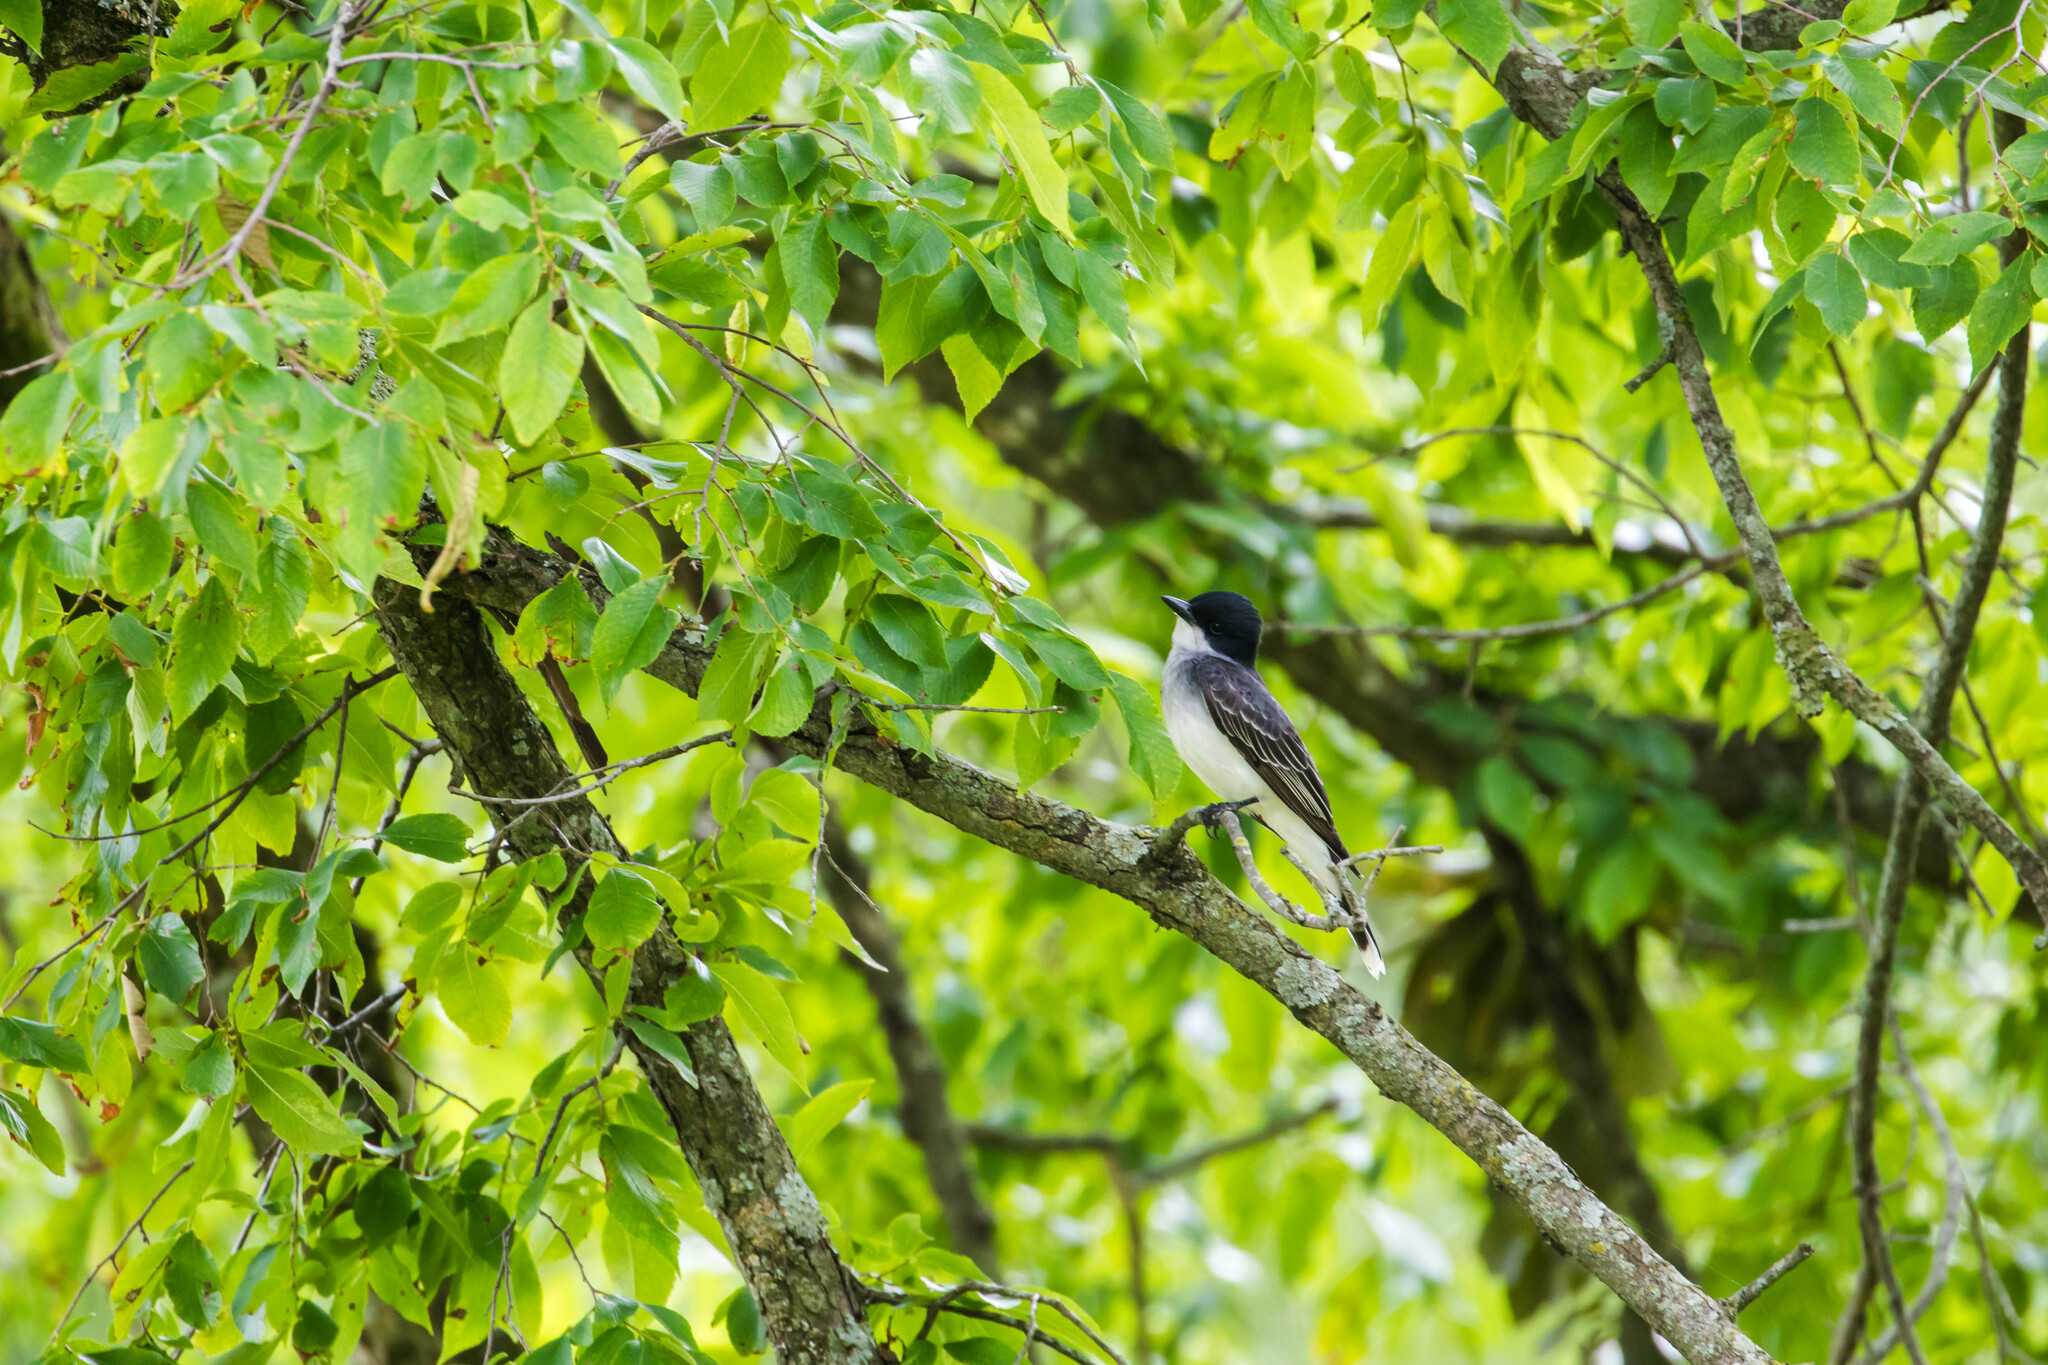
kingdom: Animalia
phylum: Chordata
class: Aves
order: Passeriformes
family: Tyrannidae
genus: Tyrannus
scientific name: Tyrannus tyrannus
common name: Eastern kingbird
